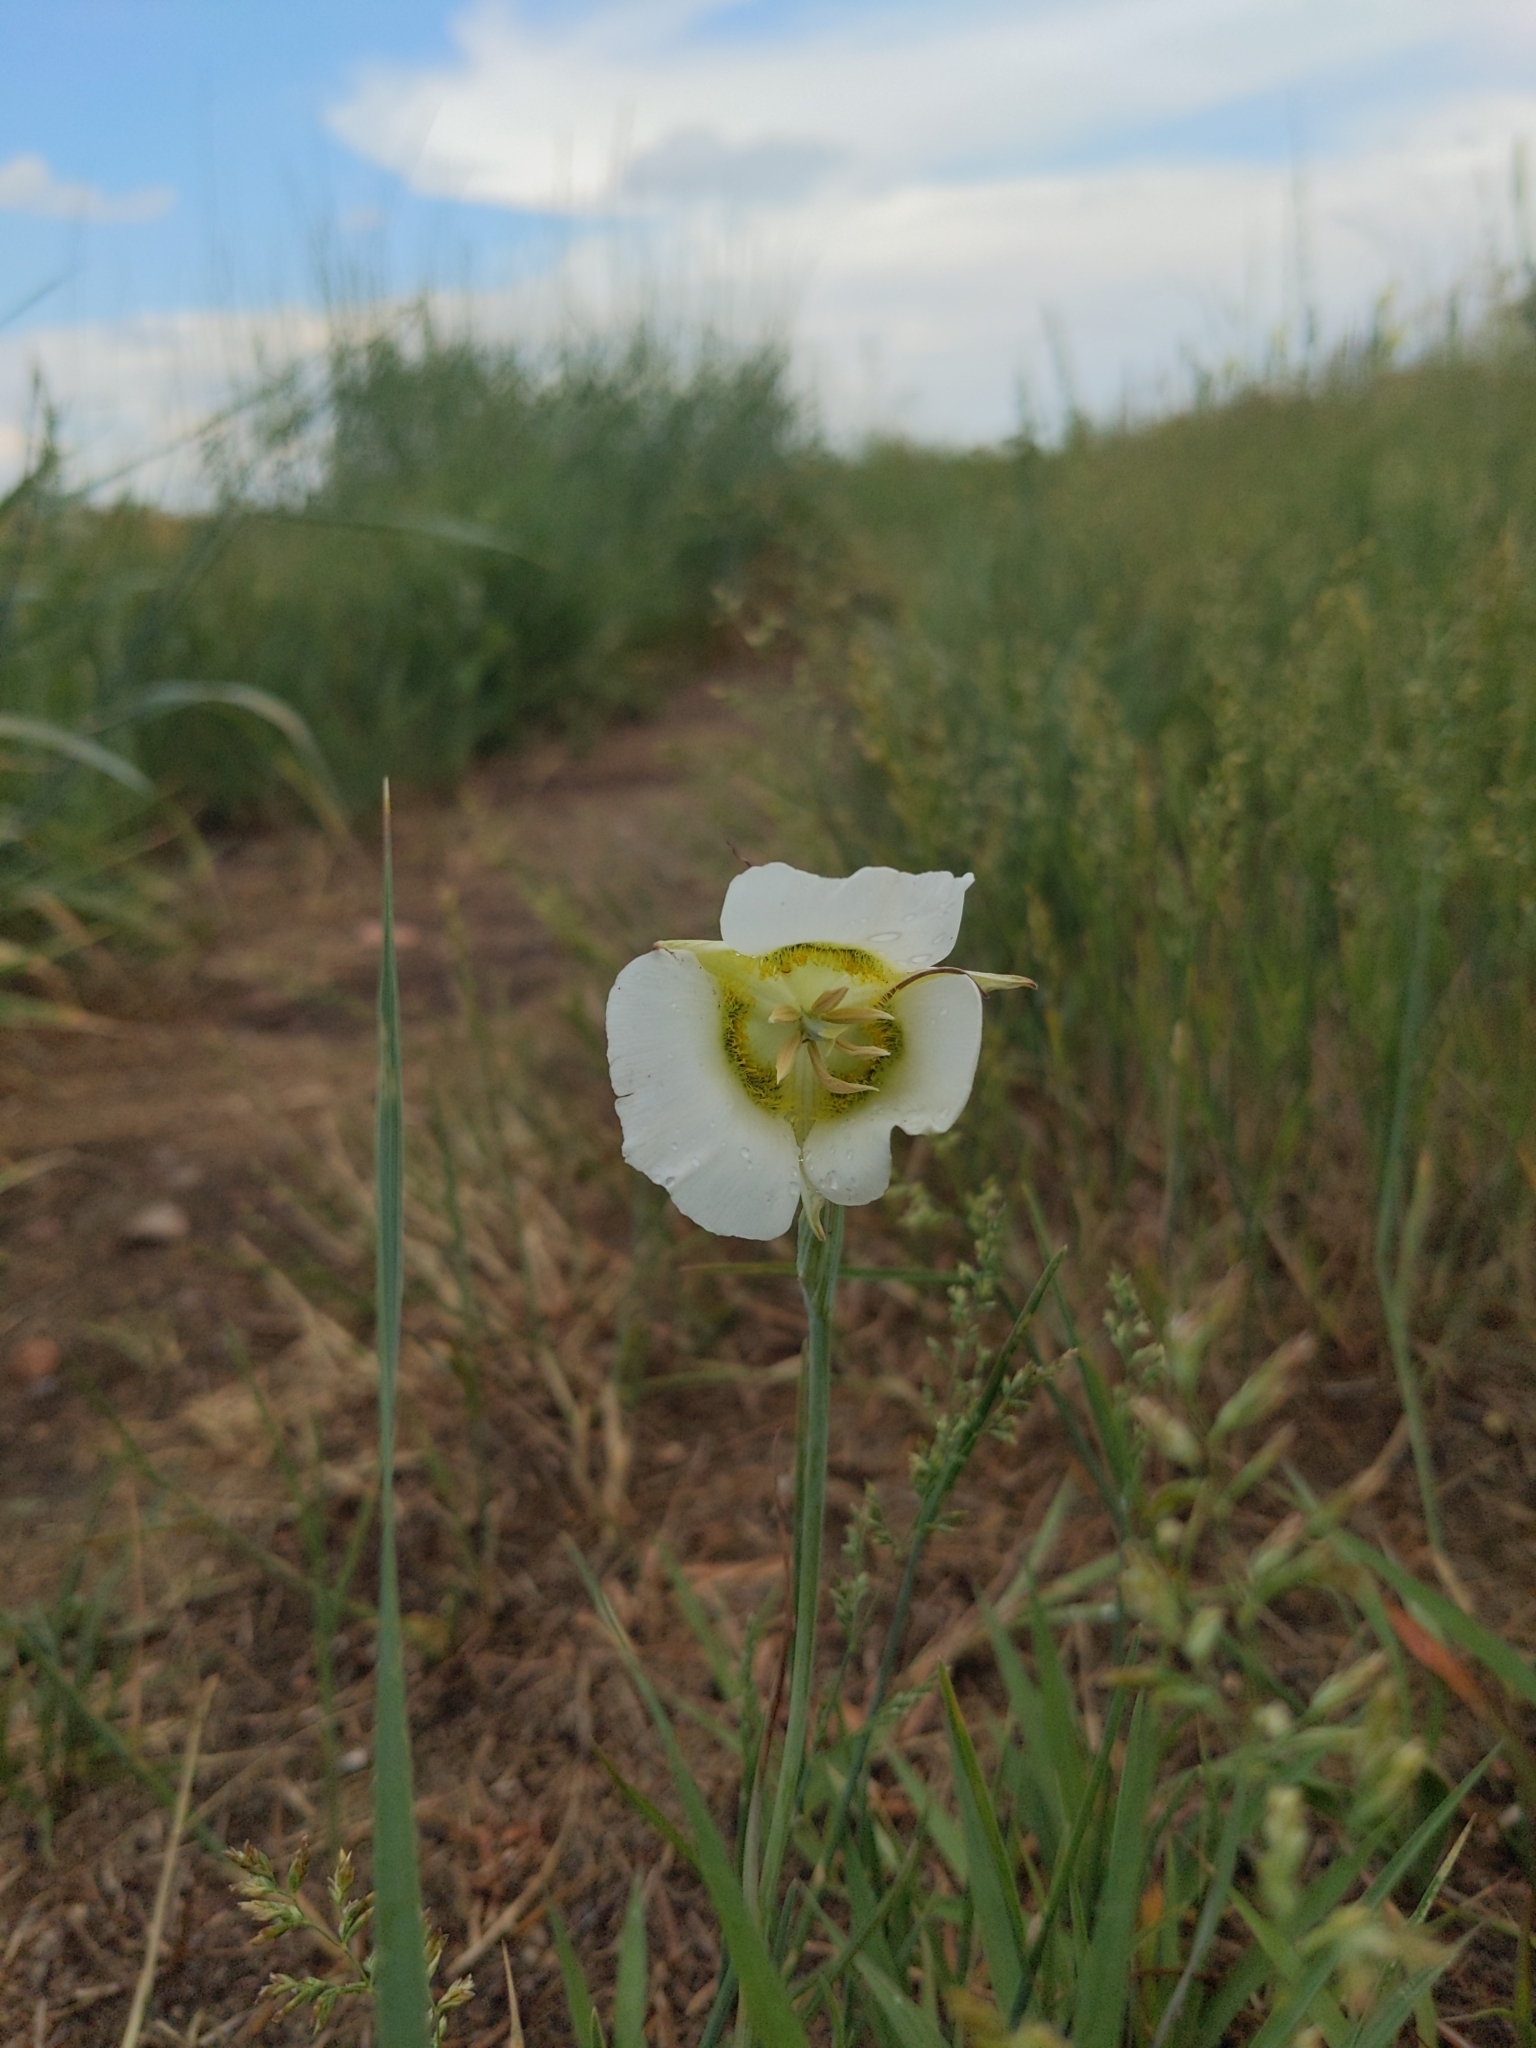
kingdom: Plantae
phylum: Tracheophyta
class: Liliopsida
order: Liliales
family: Liliaceae
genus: Calochortus
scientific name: Calochortus gunnisonii
